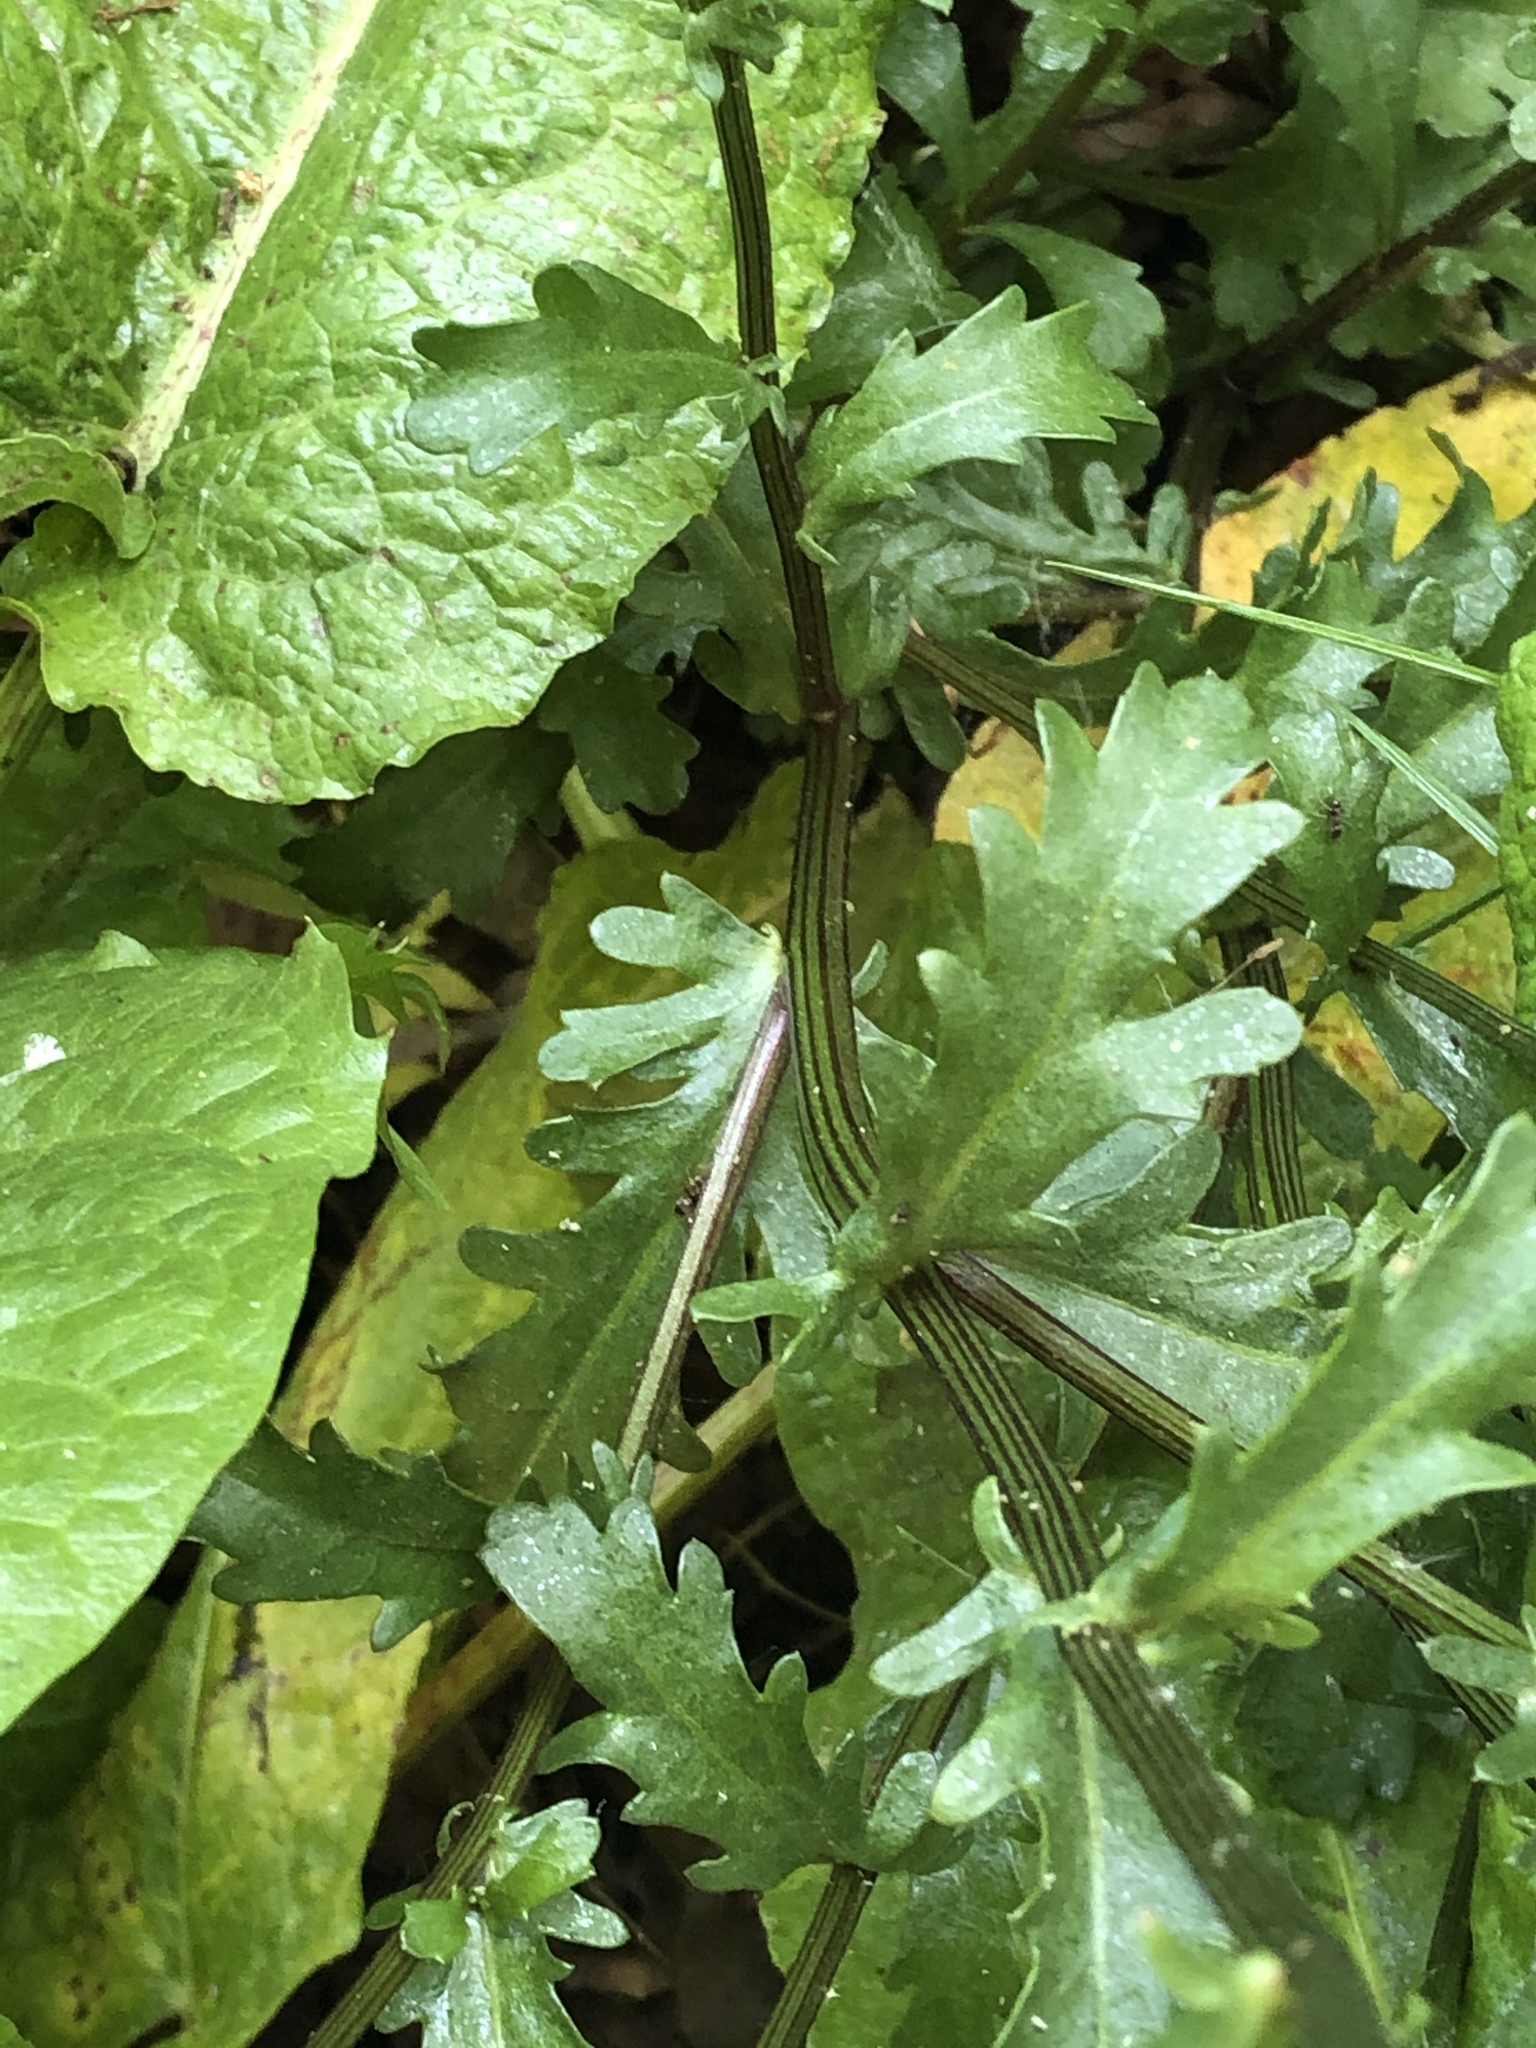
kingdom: Plantae
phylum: Tracheophyta
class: Magnoliopsida
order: Asterales
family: Asteraceae
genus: Leucanthemum
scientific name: Leucanthemum vulgare
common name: Oxeye daisy
